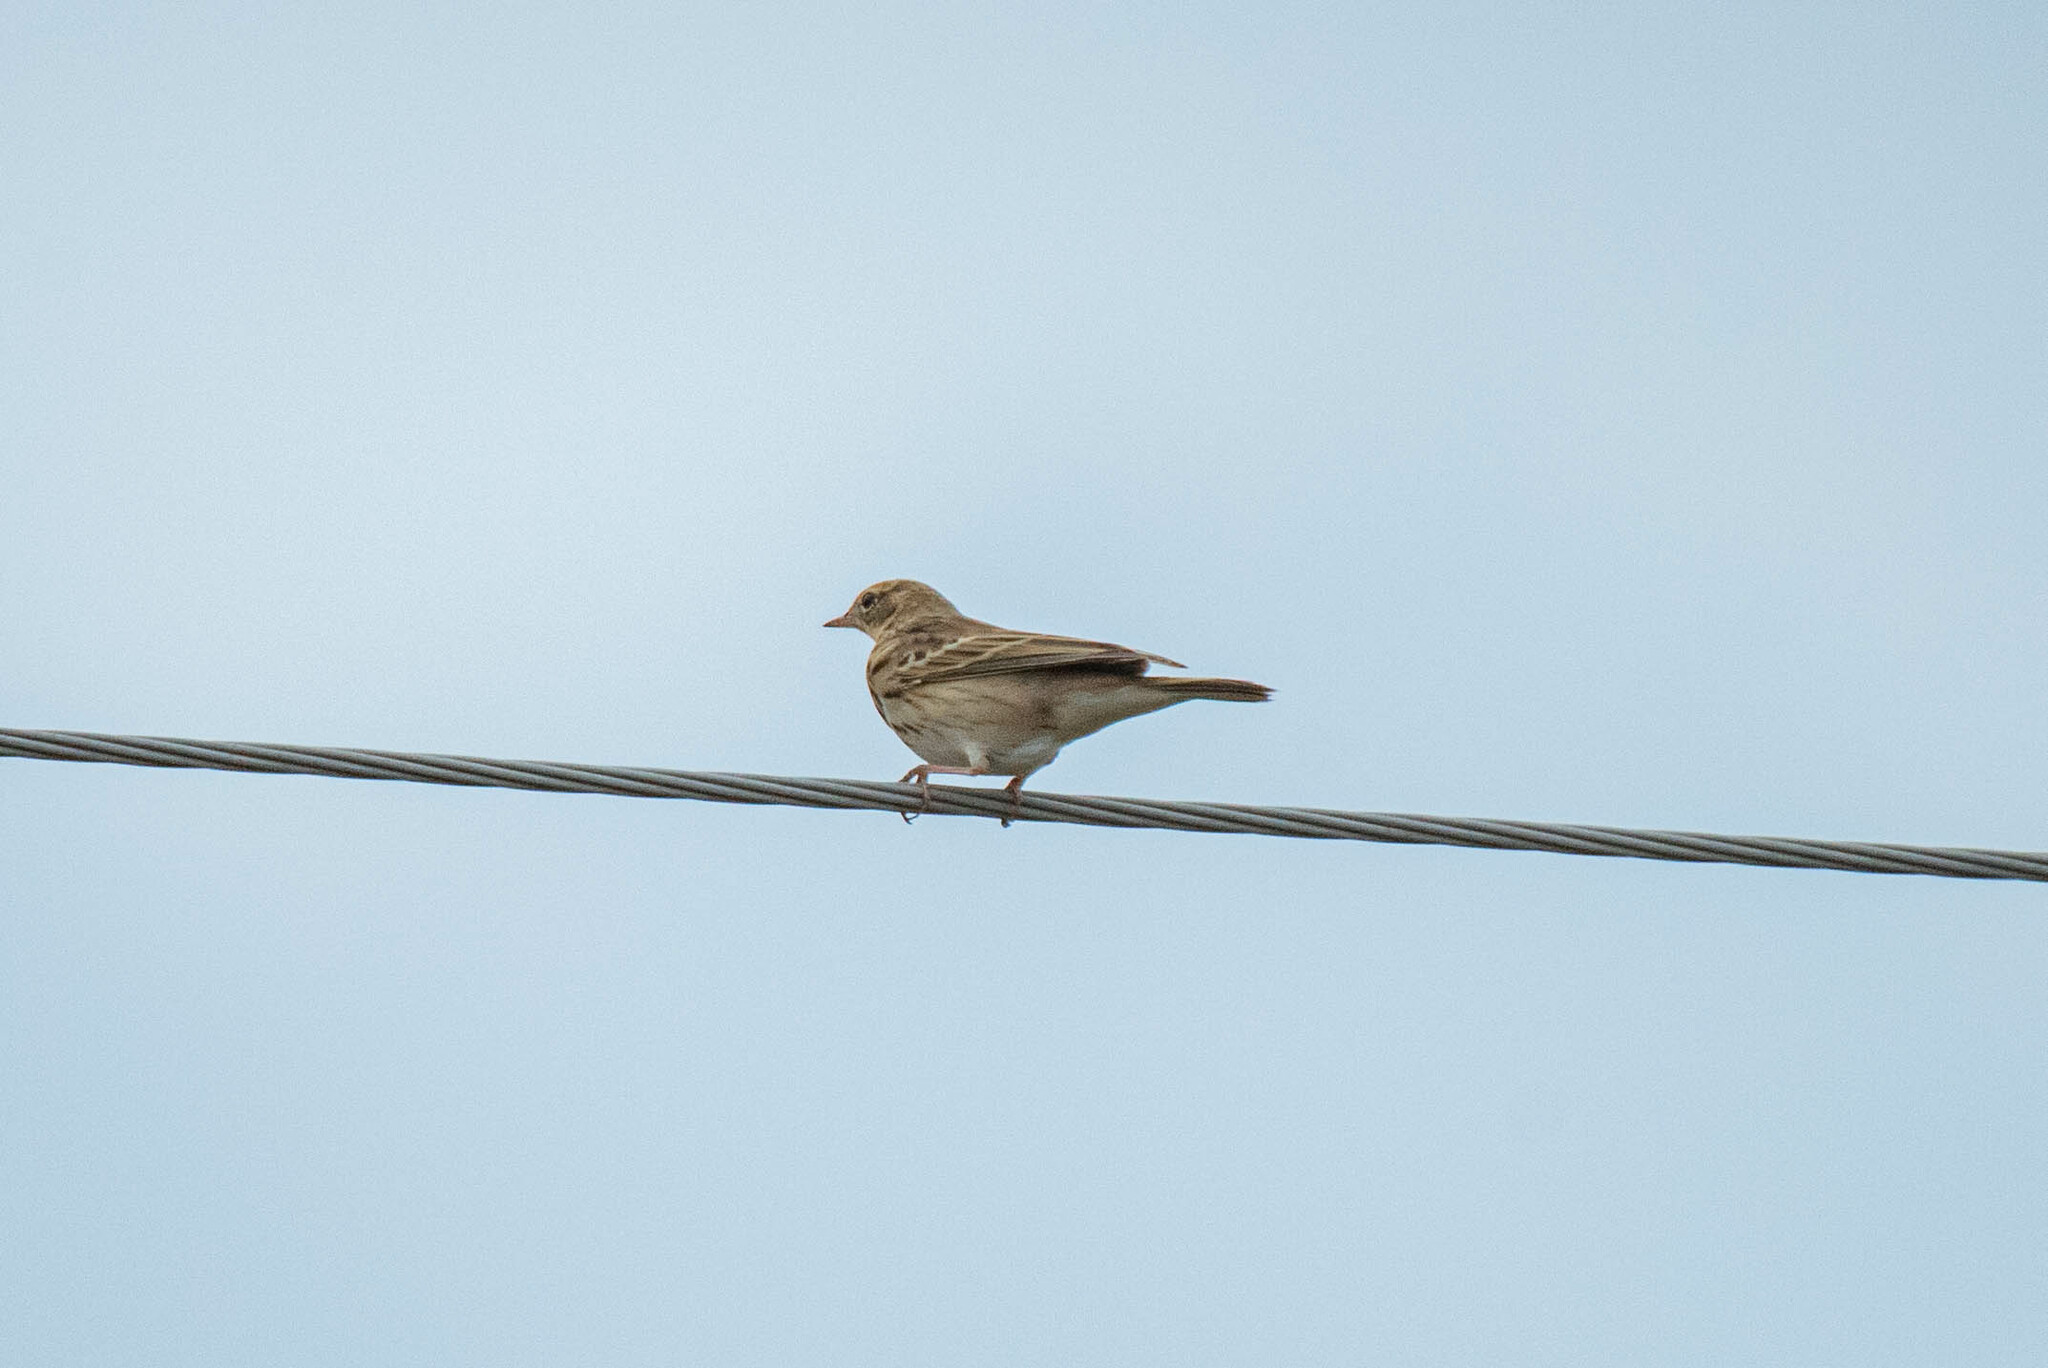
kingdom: Animalia
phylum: Chordata
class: Aves
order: Passeriformes
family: Motacillidae
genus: Anthus
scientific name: Anthus trivialis
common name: Tree pipit
